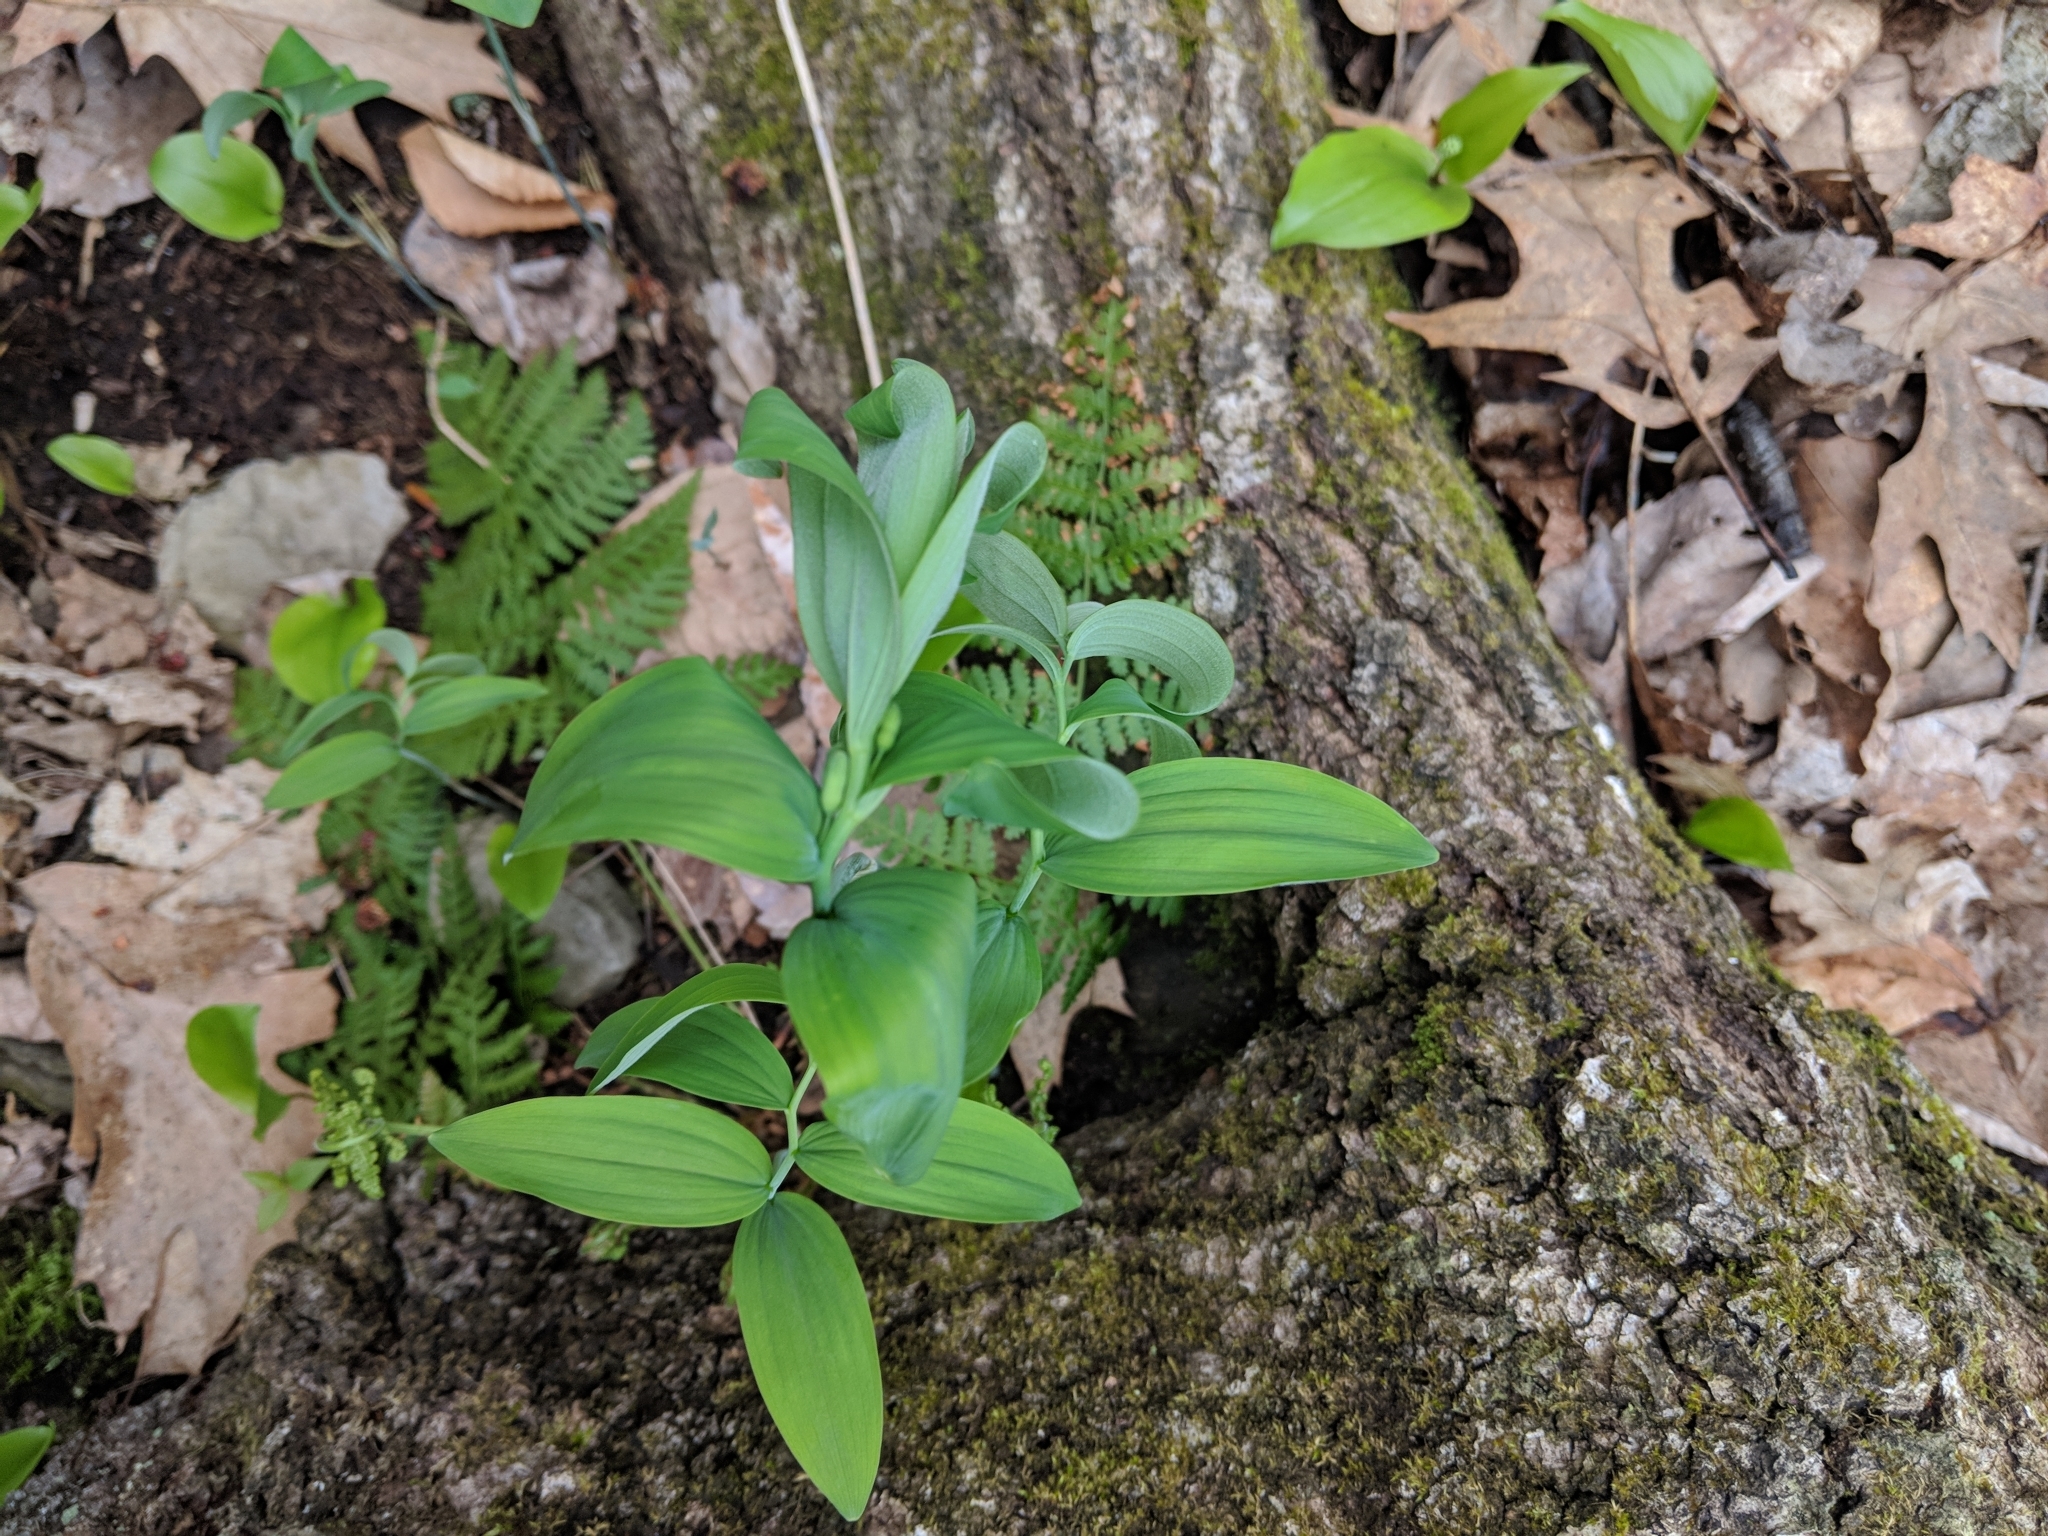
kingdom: Plantae
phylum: Tracheophyta
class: Liliopsida
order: Asparagales
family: Asparagaceae
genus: Polygonatum
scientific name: Polygonatum pubescens
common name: Downy solomon's seal
